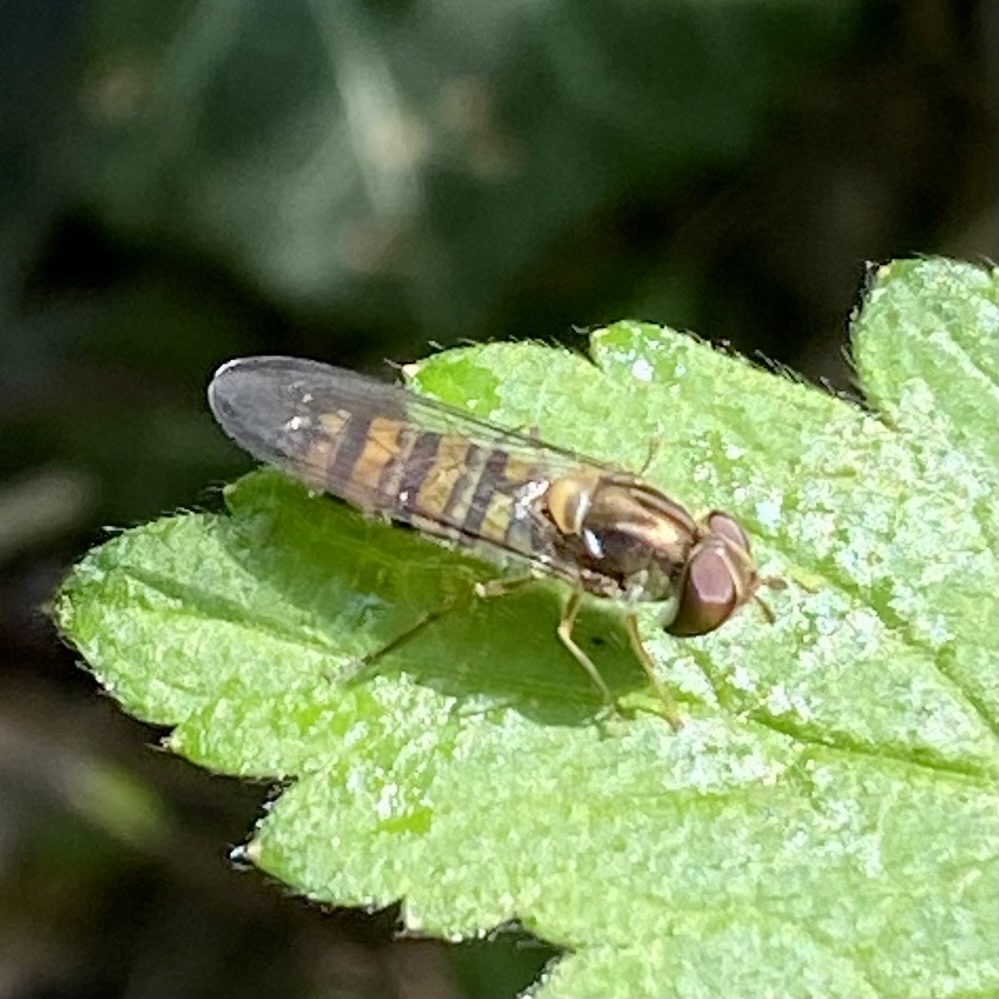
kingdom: Animalia
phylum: Arthropoda
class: Insecta
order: Diptera
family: Syrphidae
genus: Episyrphus
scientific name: Episyrphus balteatus
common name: Marmalade hoverfly
